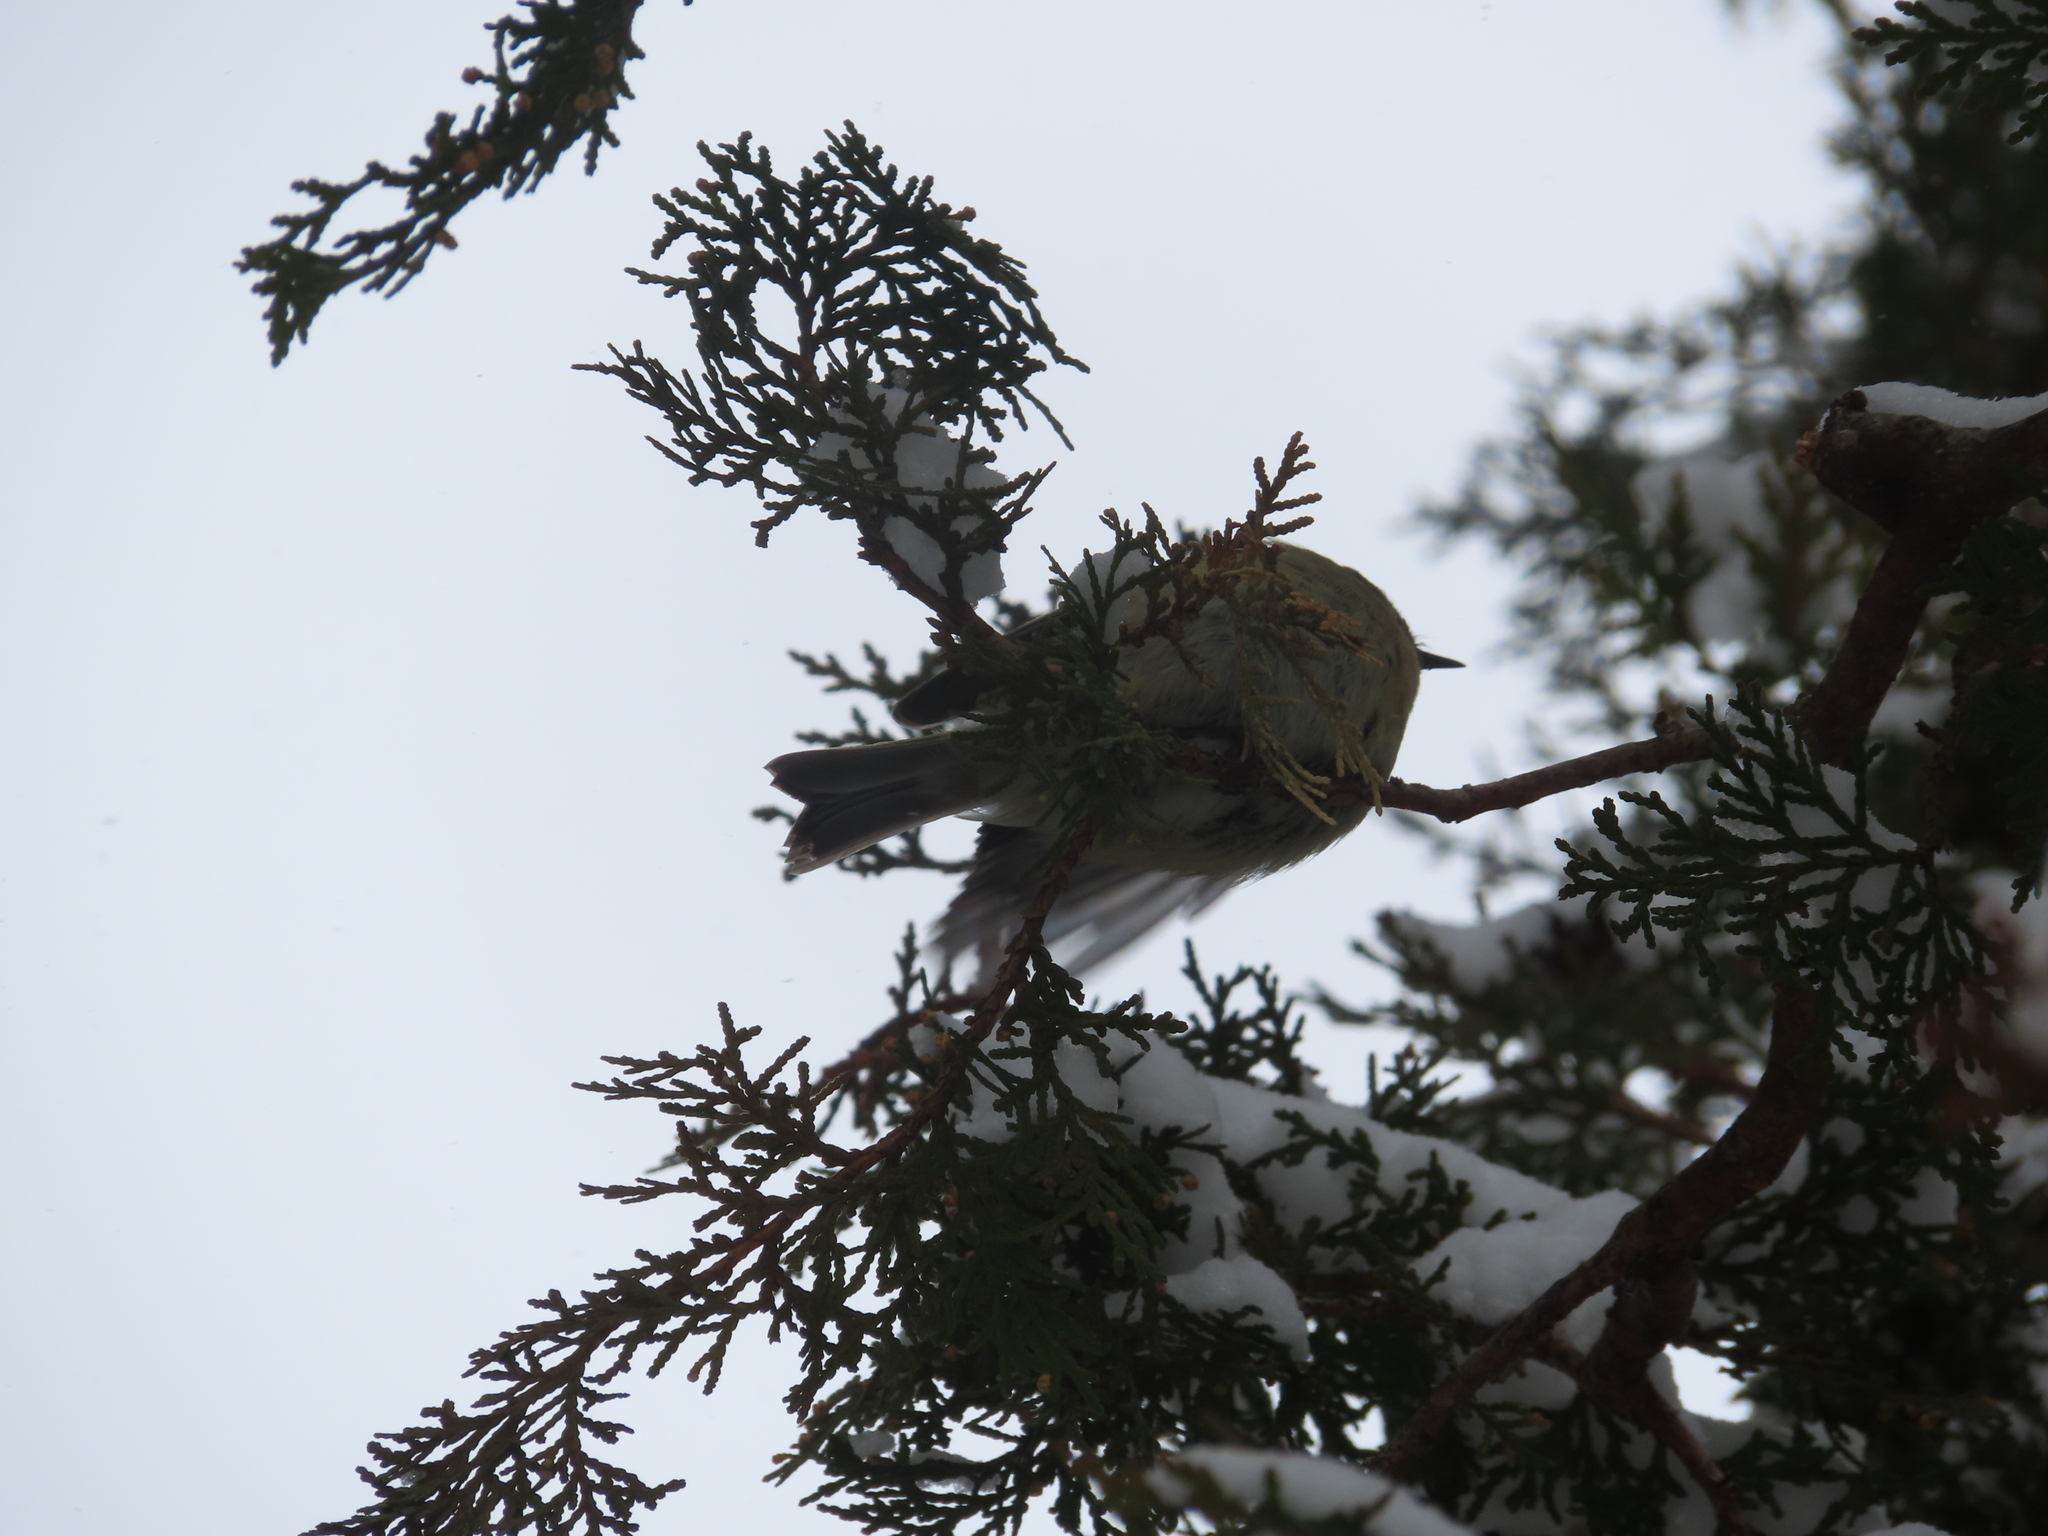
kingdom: Animalia
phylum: Chordata
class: Aves
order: Passeriformes
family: Regulidae
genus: Regulus
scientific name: Regulus calendula
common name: Ruby-crowned kinglet
